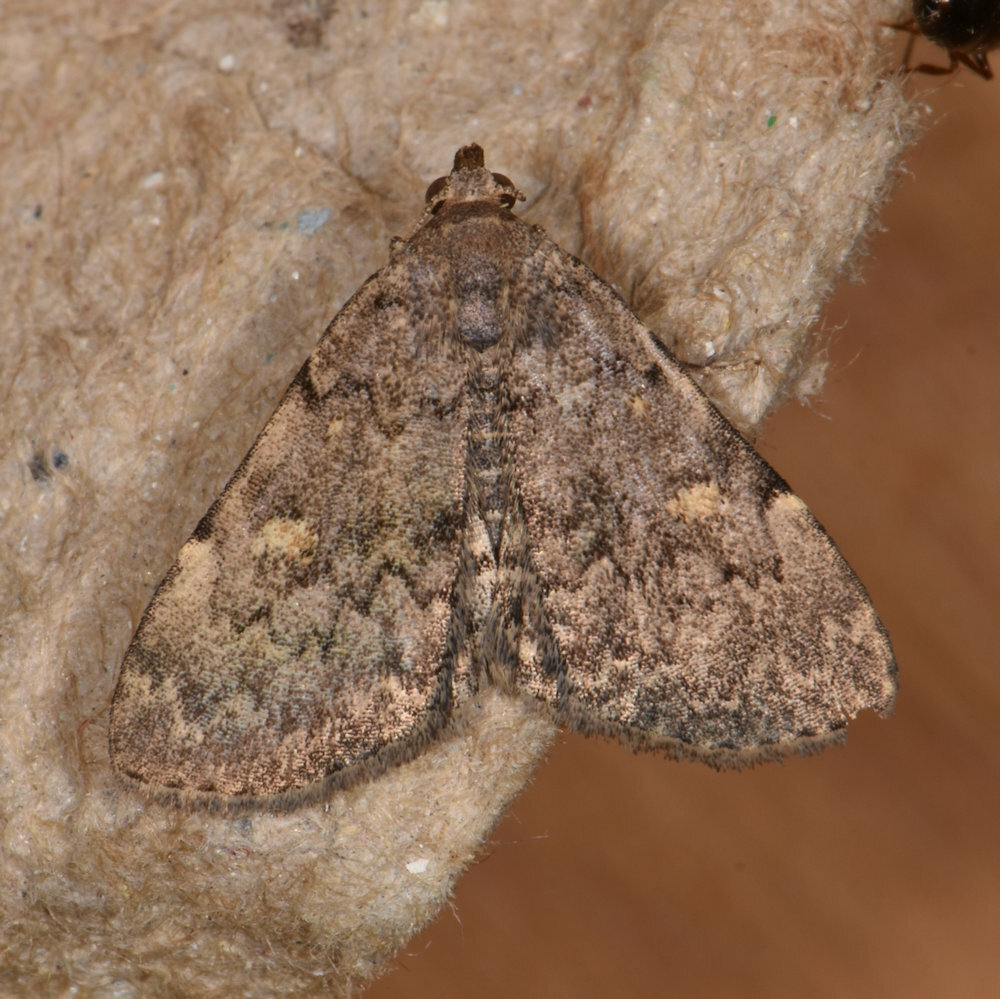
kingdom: Animalia
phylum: Arthropoda
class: Insecta
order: Lepidoptera
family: Erebidae
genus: Idia
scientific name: Idia aemula
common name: Common idia moth
